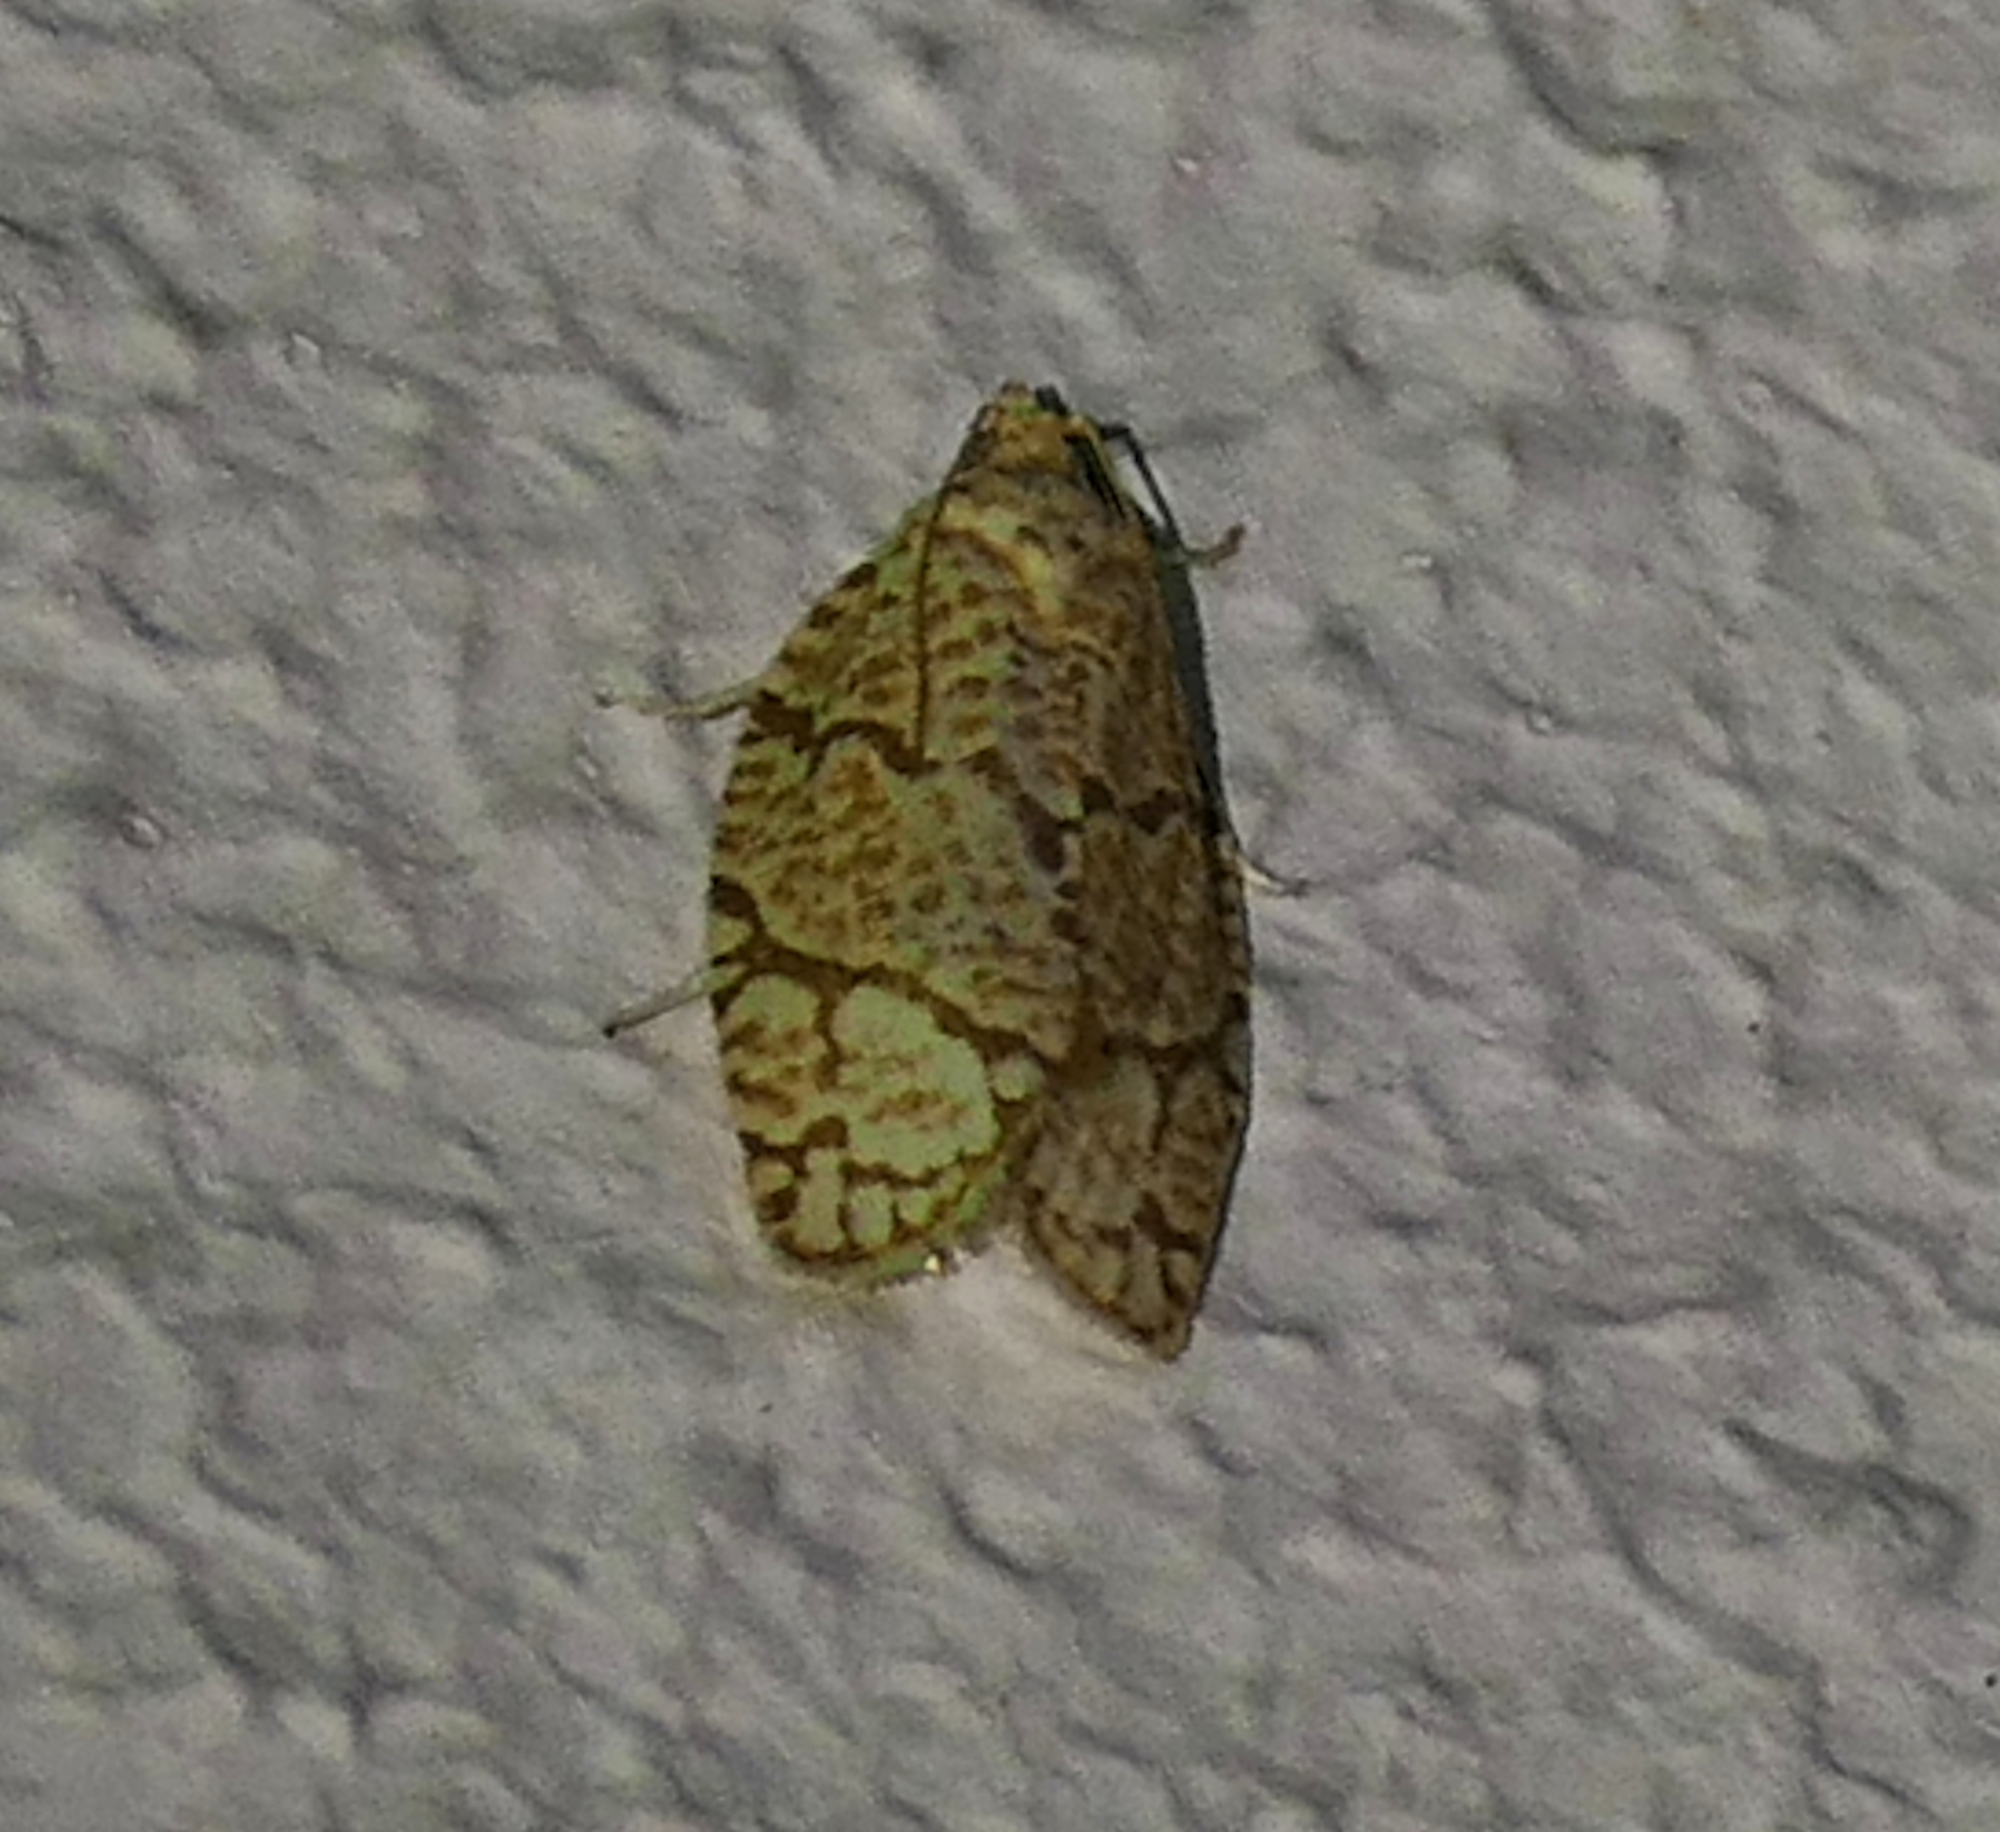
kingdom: Animalia
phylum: Arthropoda
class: Insecta
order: Lepidoptera
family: Tortricidae
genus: Argyrotaenia
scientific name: Argyrotaenia quercifoliana
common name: Yellow-winged oak leafroller moth
